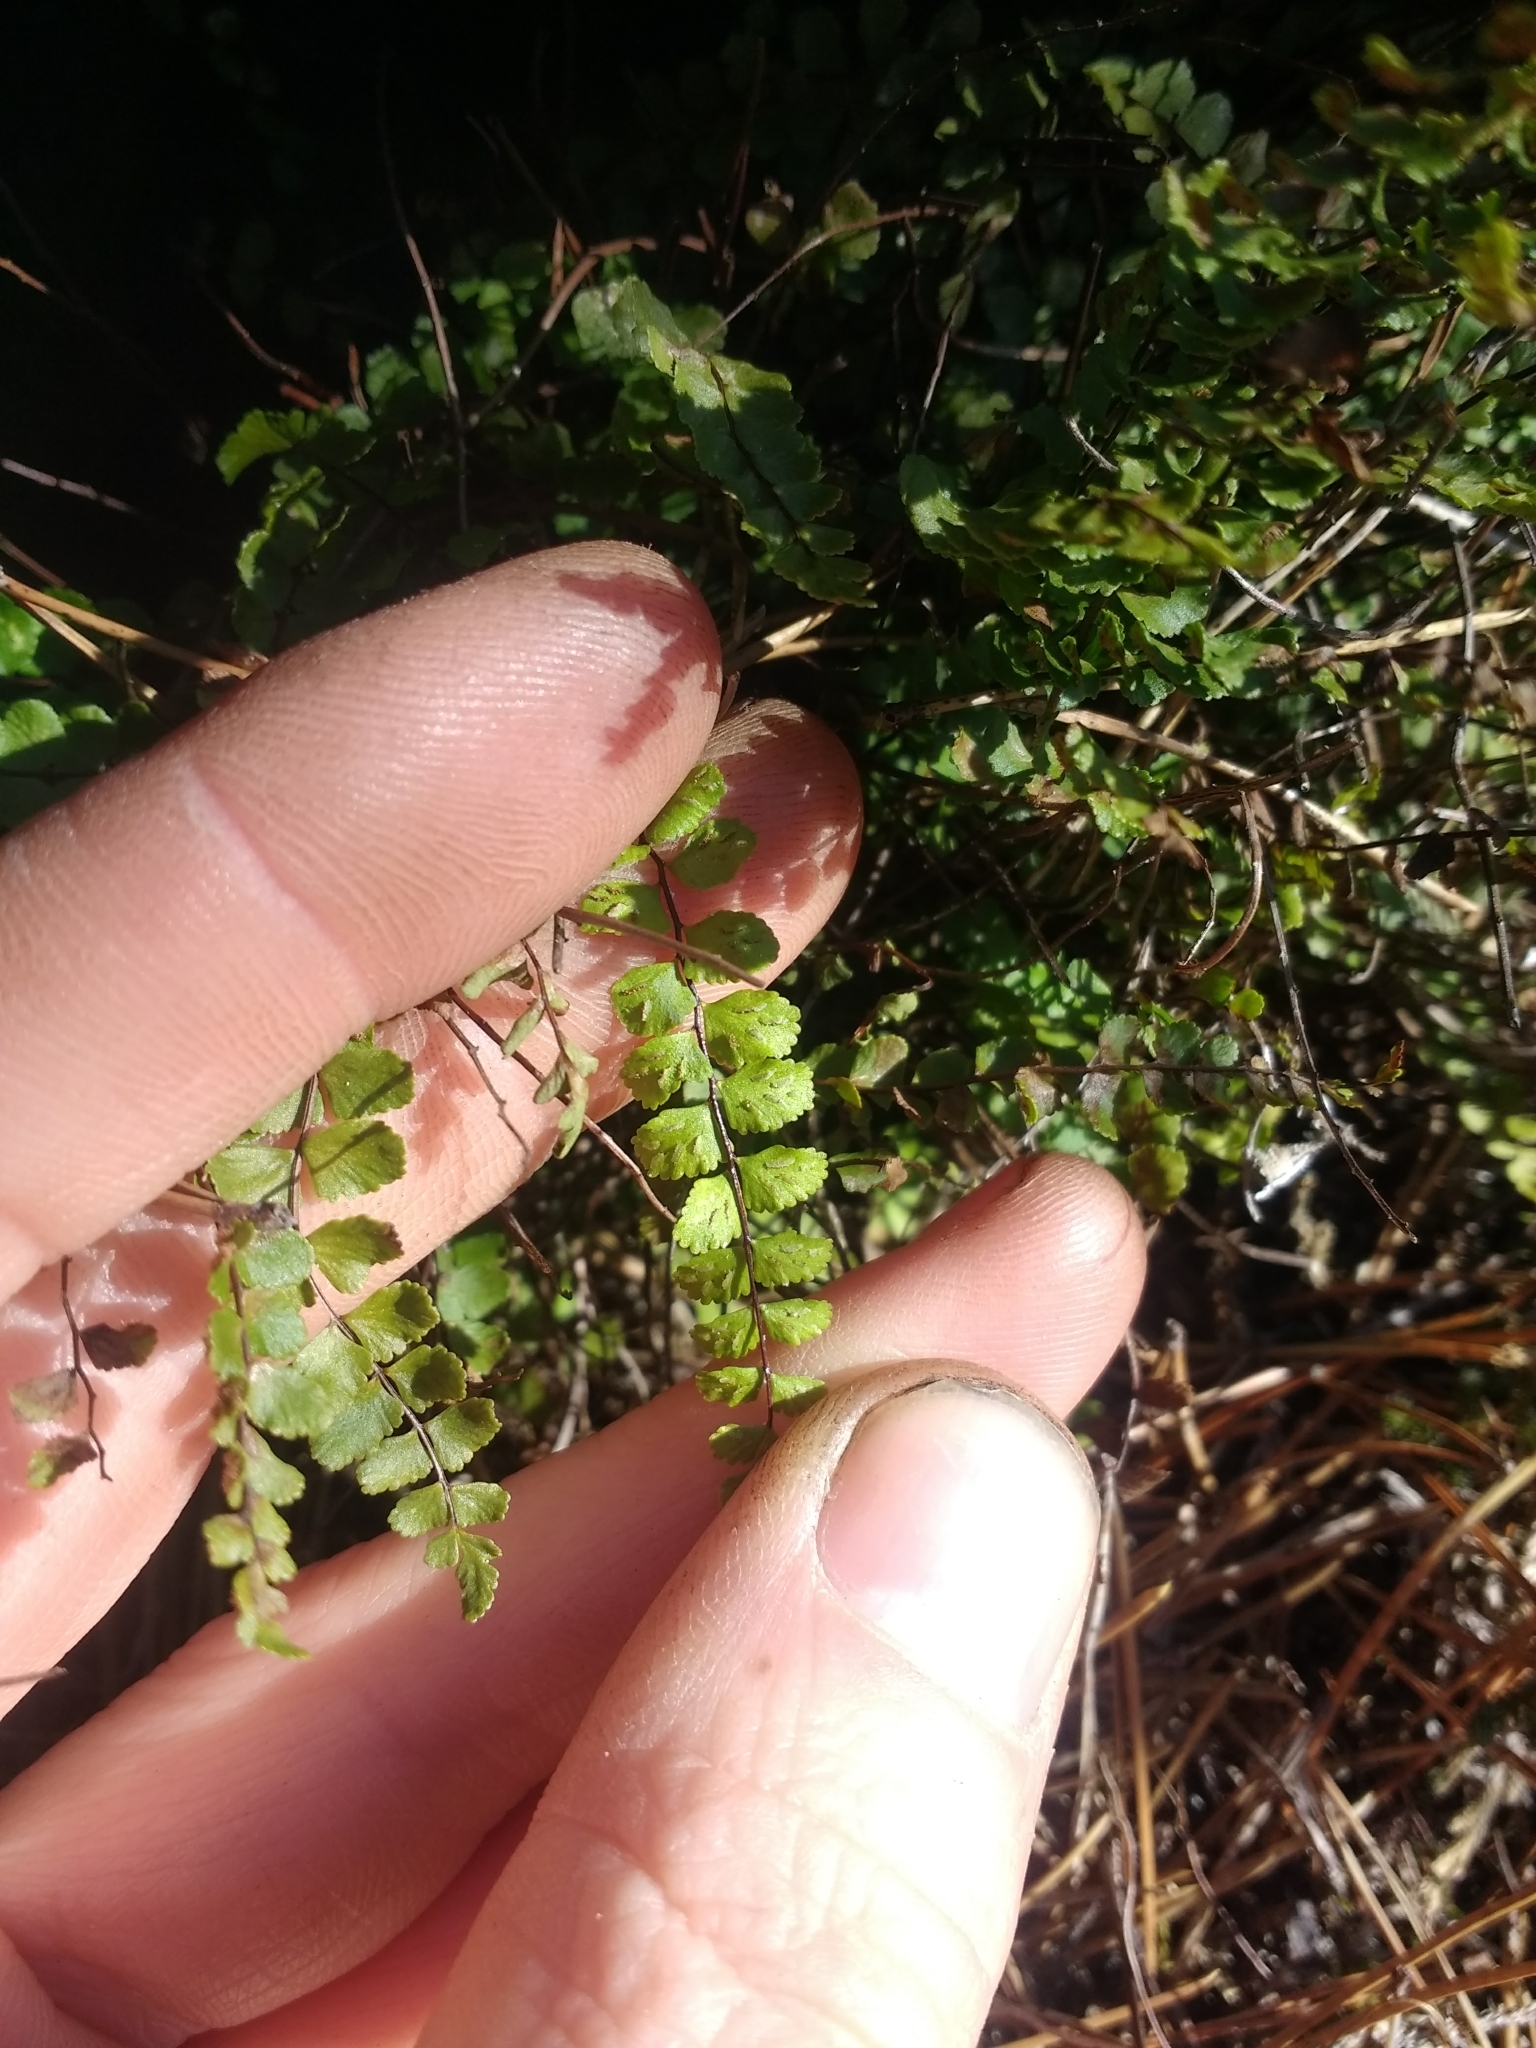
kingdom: Plantae
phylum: Tracheophyta
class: Polypodiopsida
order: Polypodiales
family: Aspleniaceae
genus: Asplenium
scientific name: Asplenium trichomanes
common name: Maidenhair spleenwort
